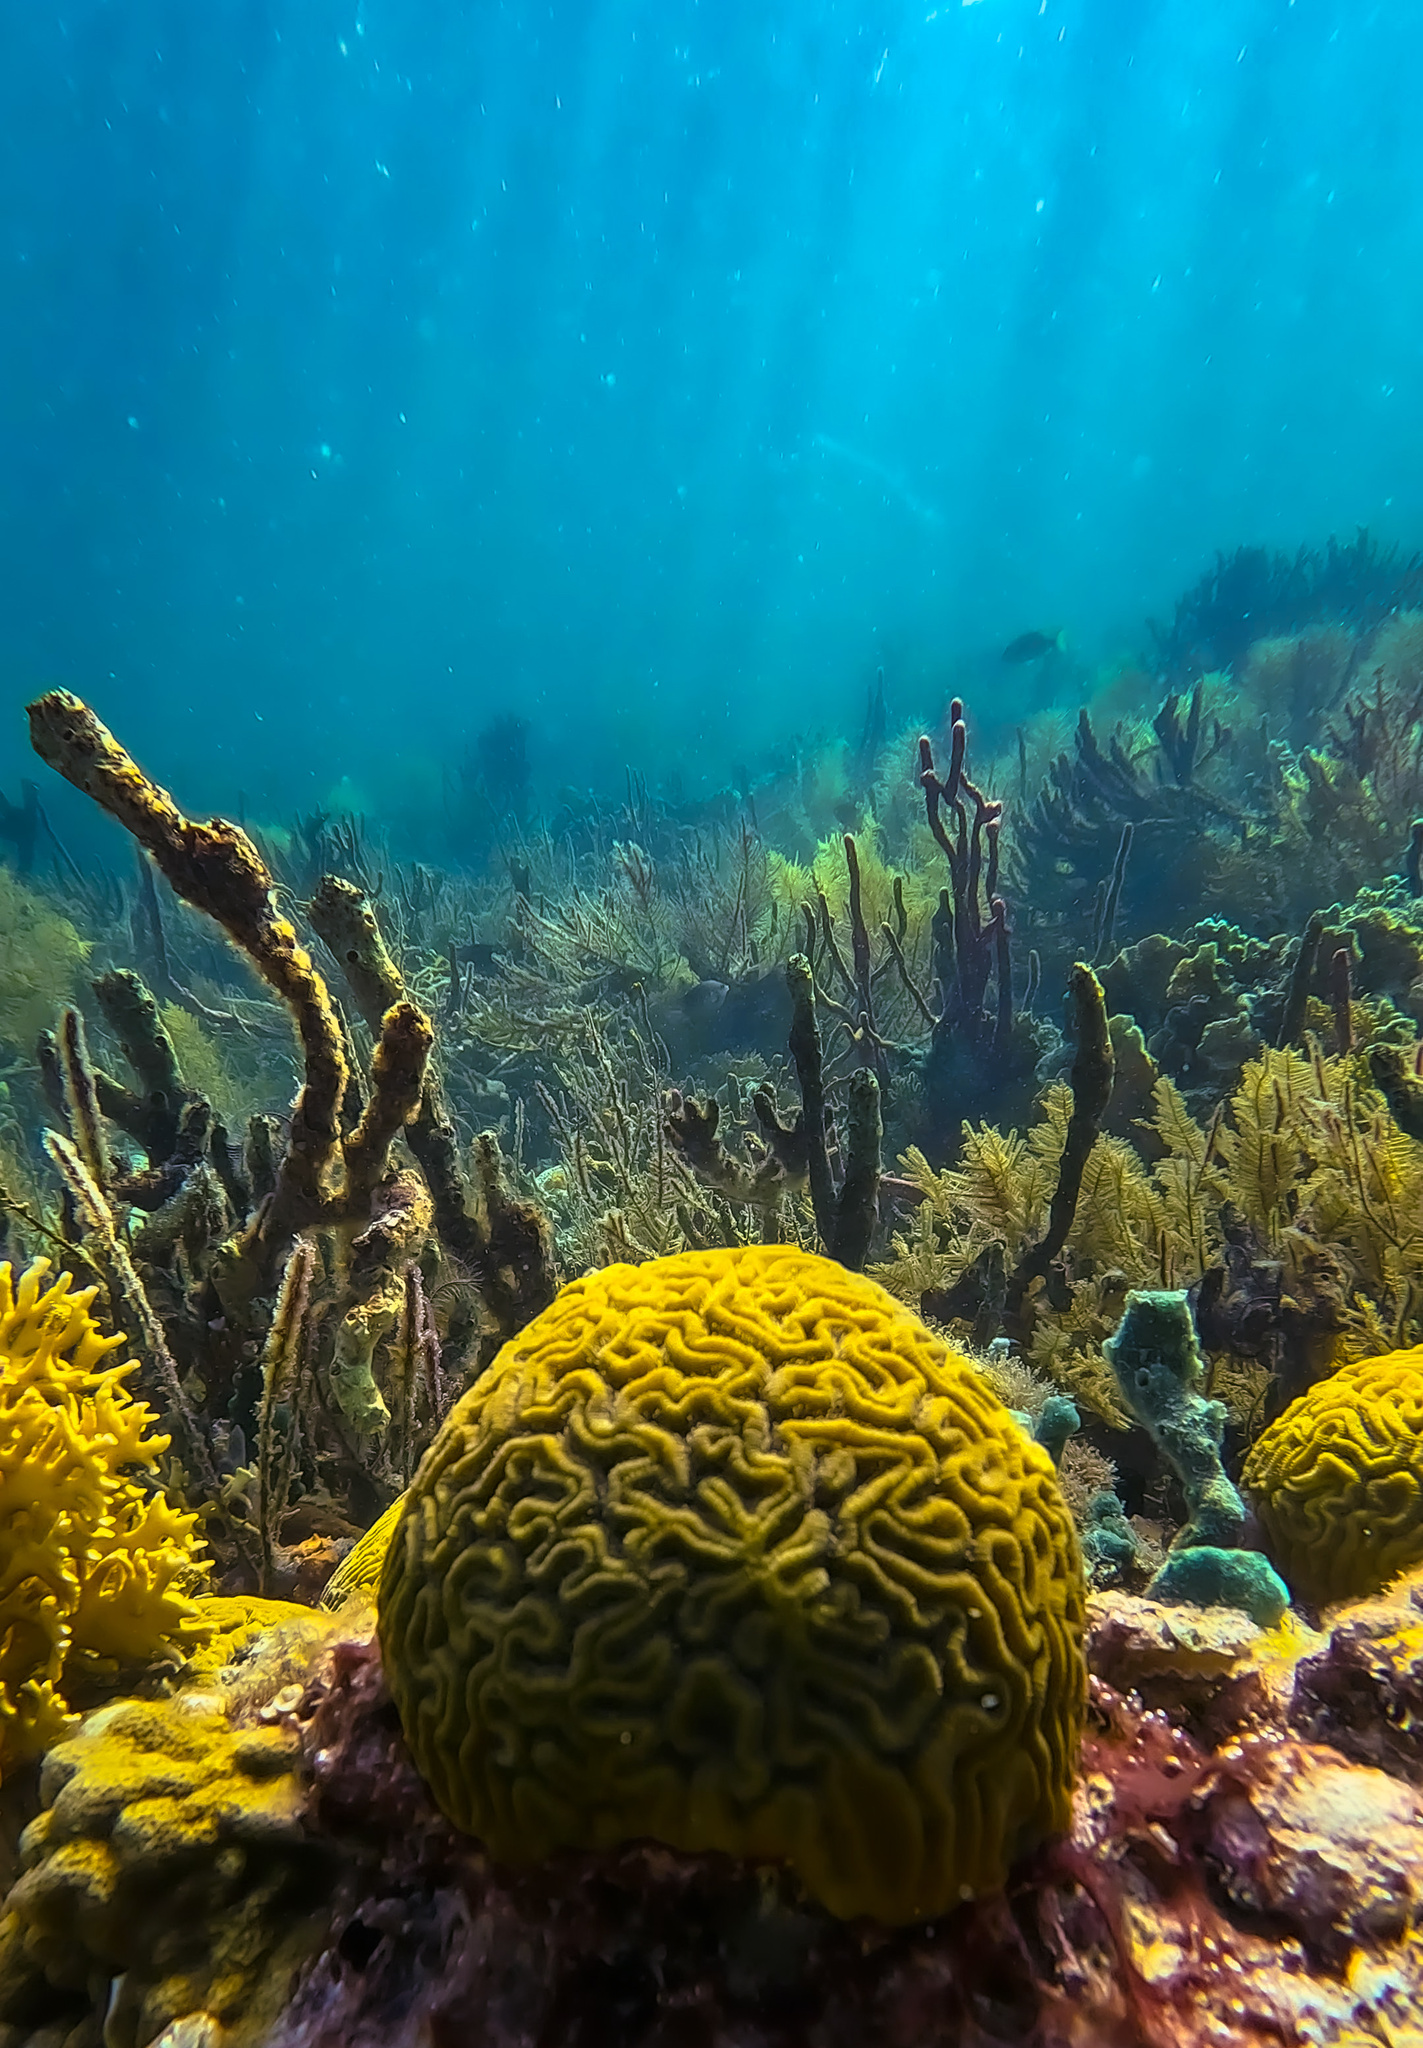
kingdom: Animalia
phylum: Cnidaria
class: Anthozoa
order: Scleractinia
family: Faviidae
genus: Diploria
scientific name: Diploria labyrinthiformis
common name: Grooved brain coral
